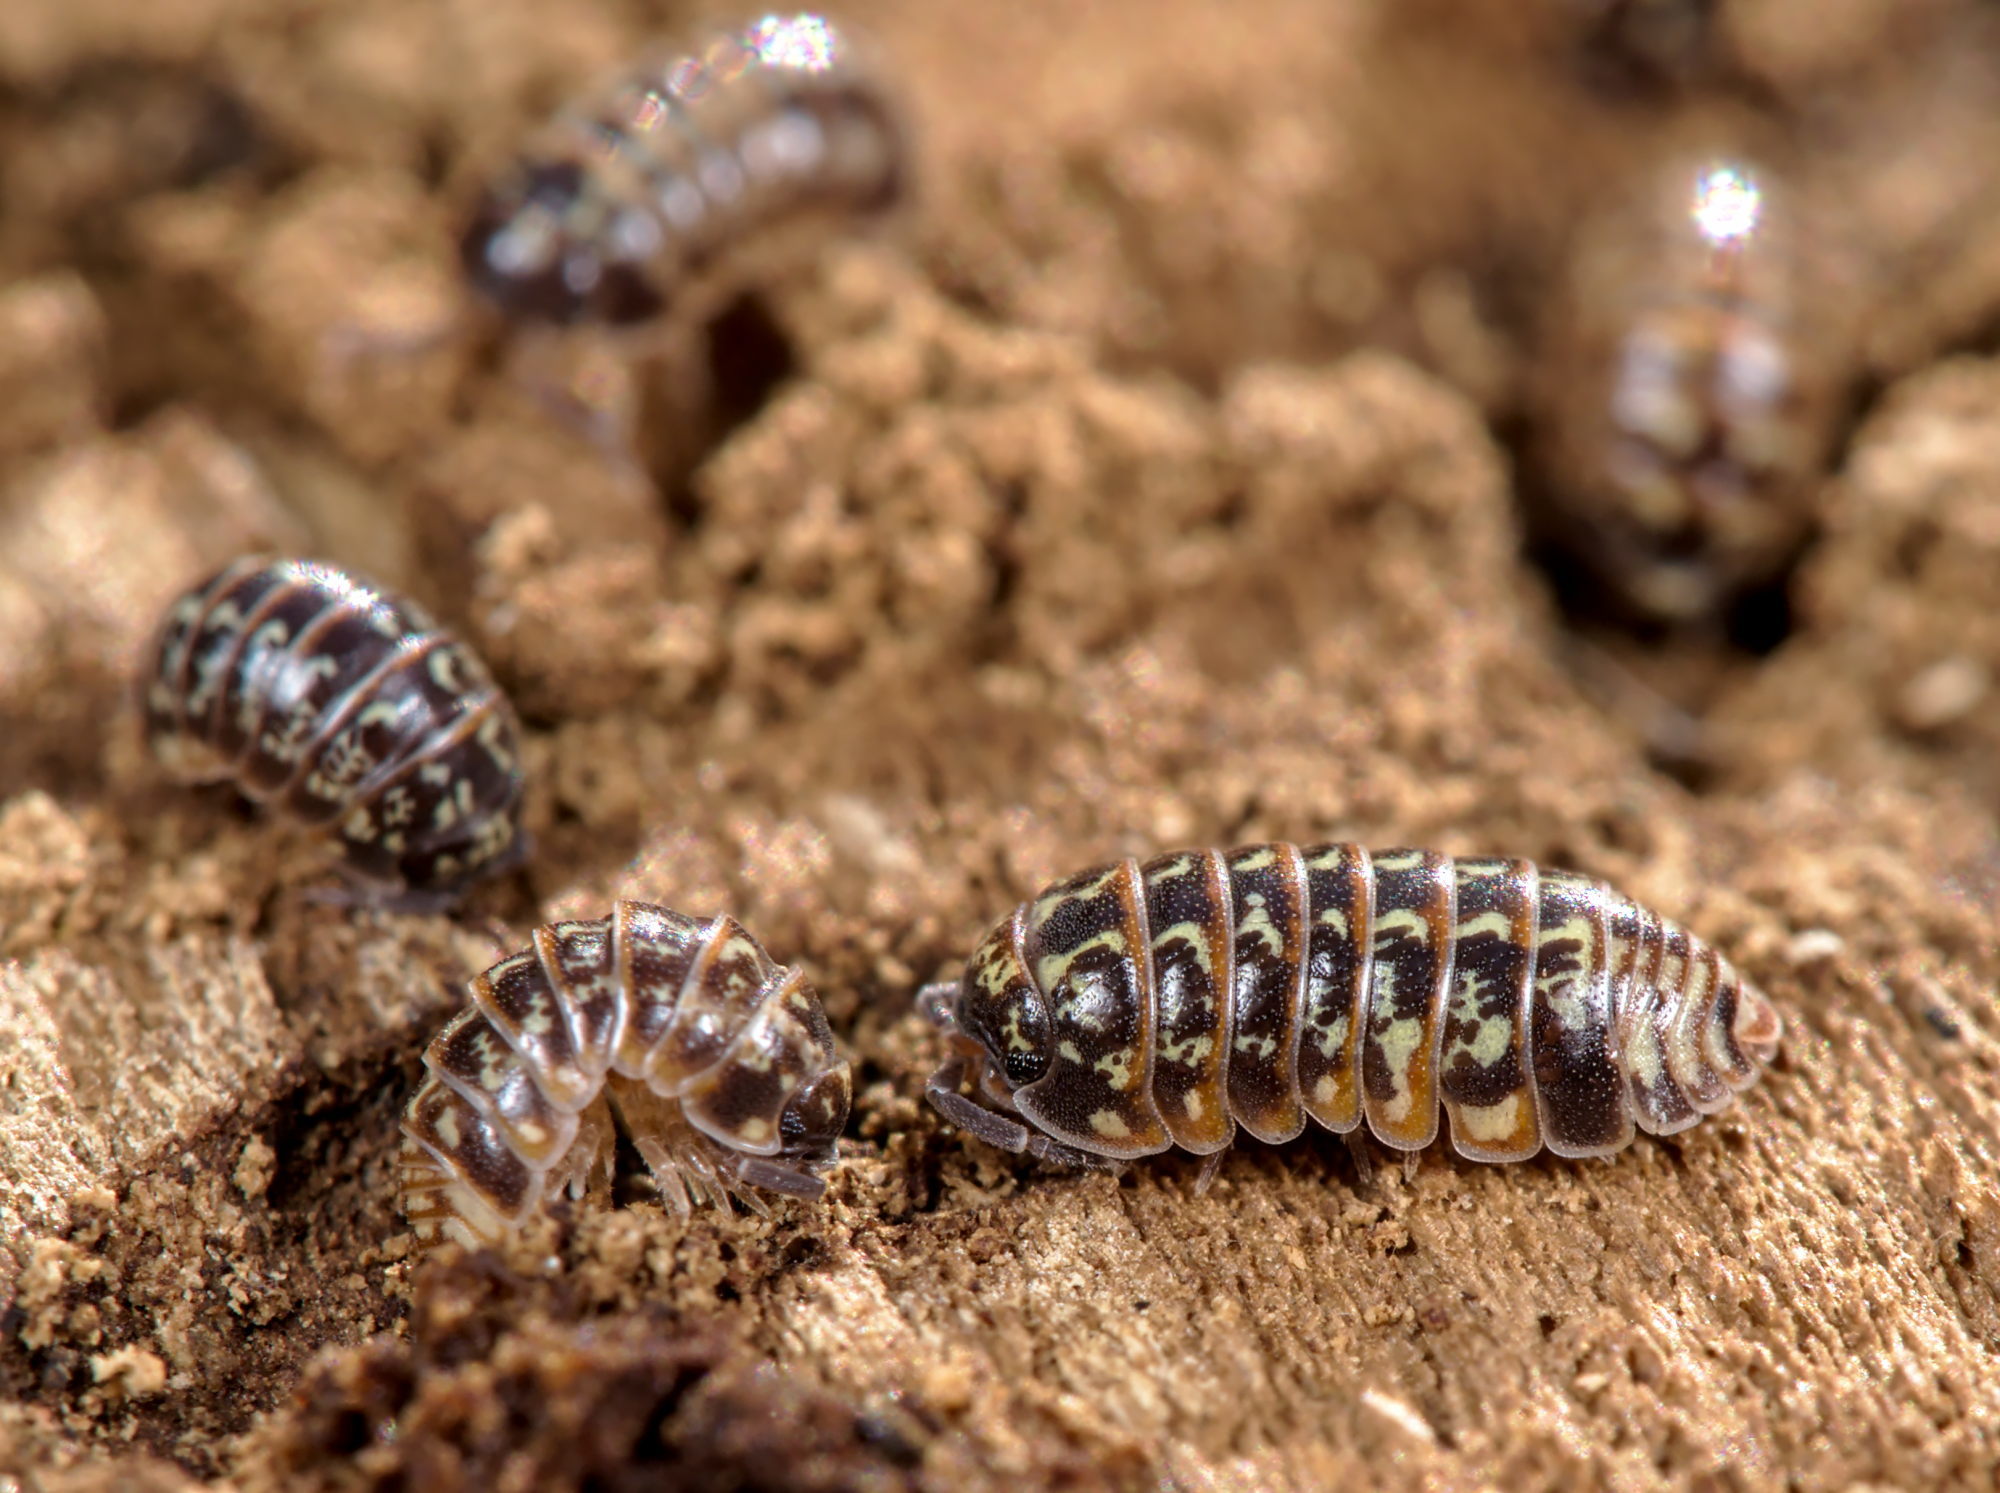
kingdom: Animalia
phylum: Arthropoda
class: Malacostraca
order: Isopoda
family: Armadillidiidae
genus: Armadillidium
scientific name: Armadillidium pulchellum
